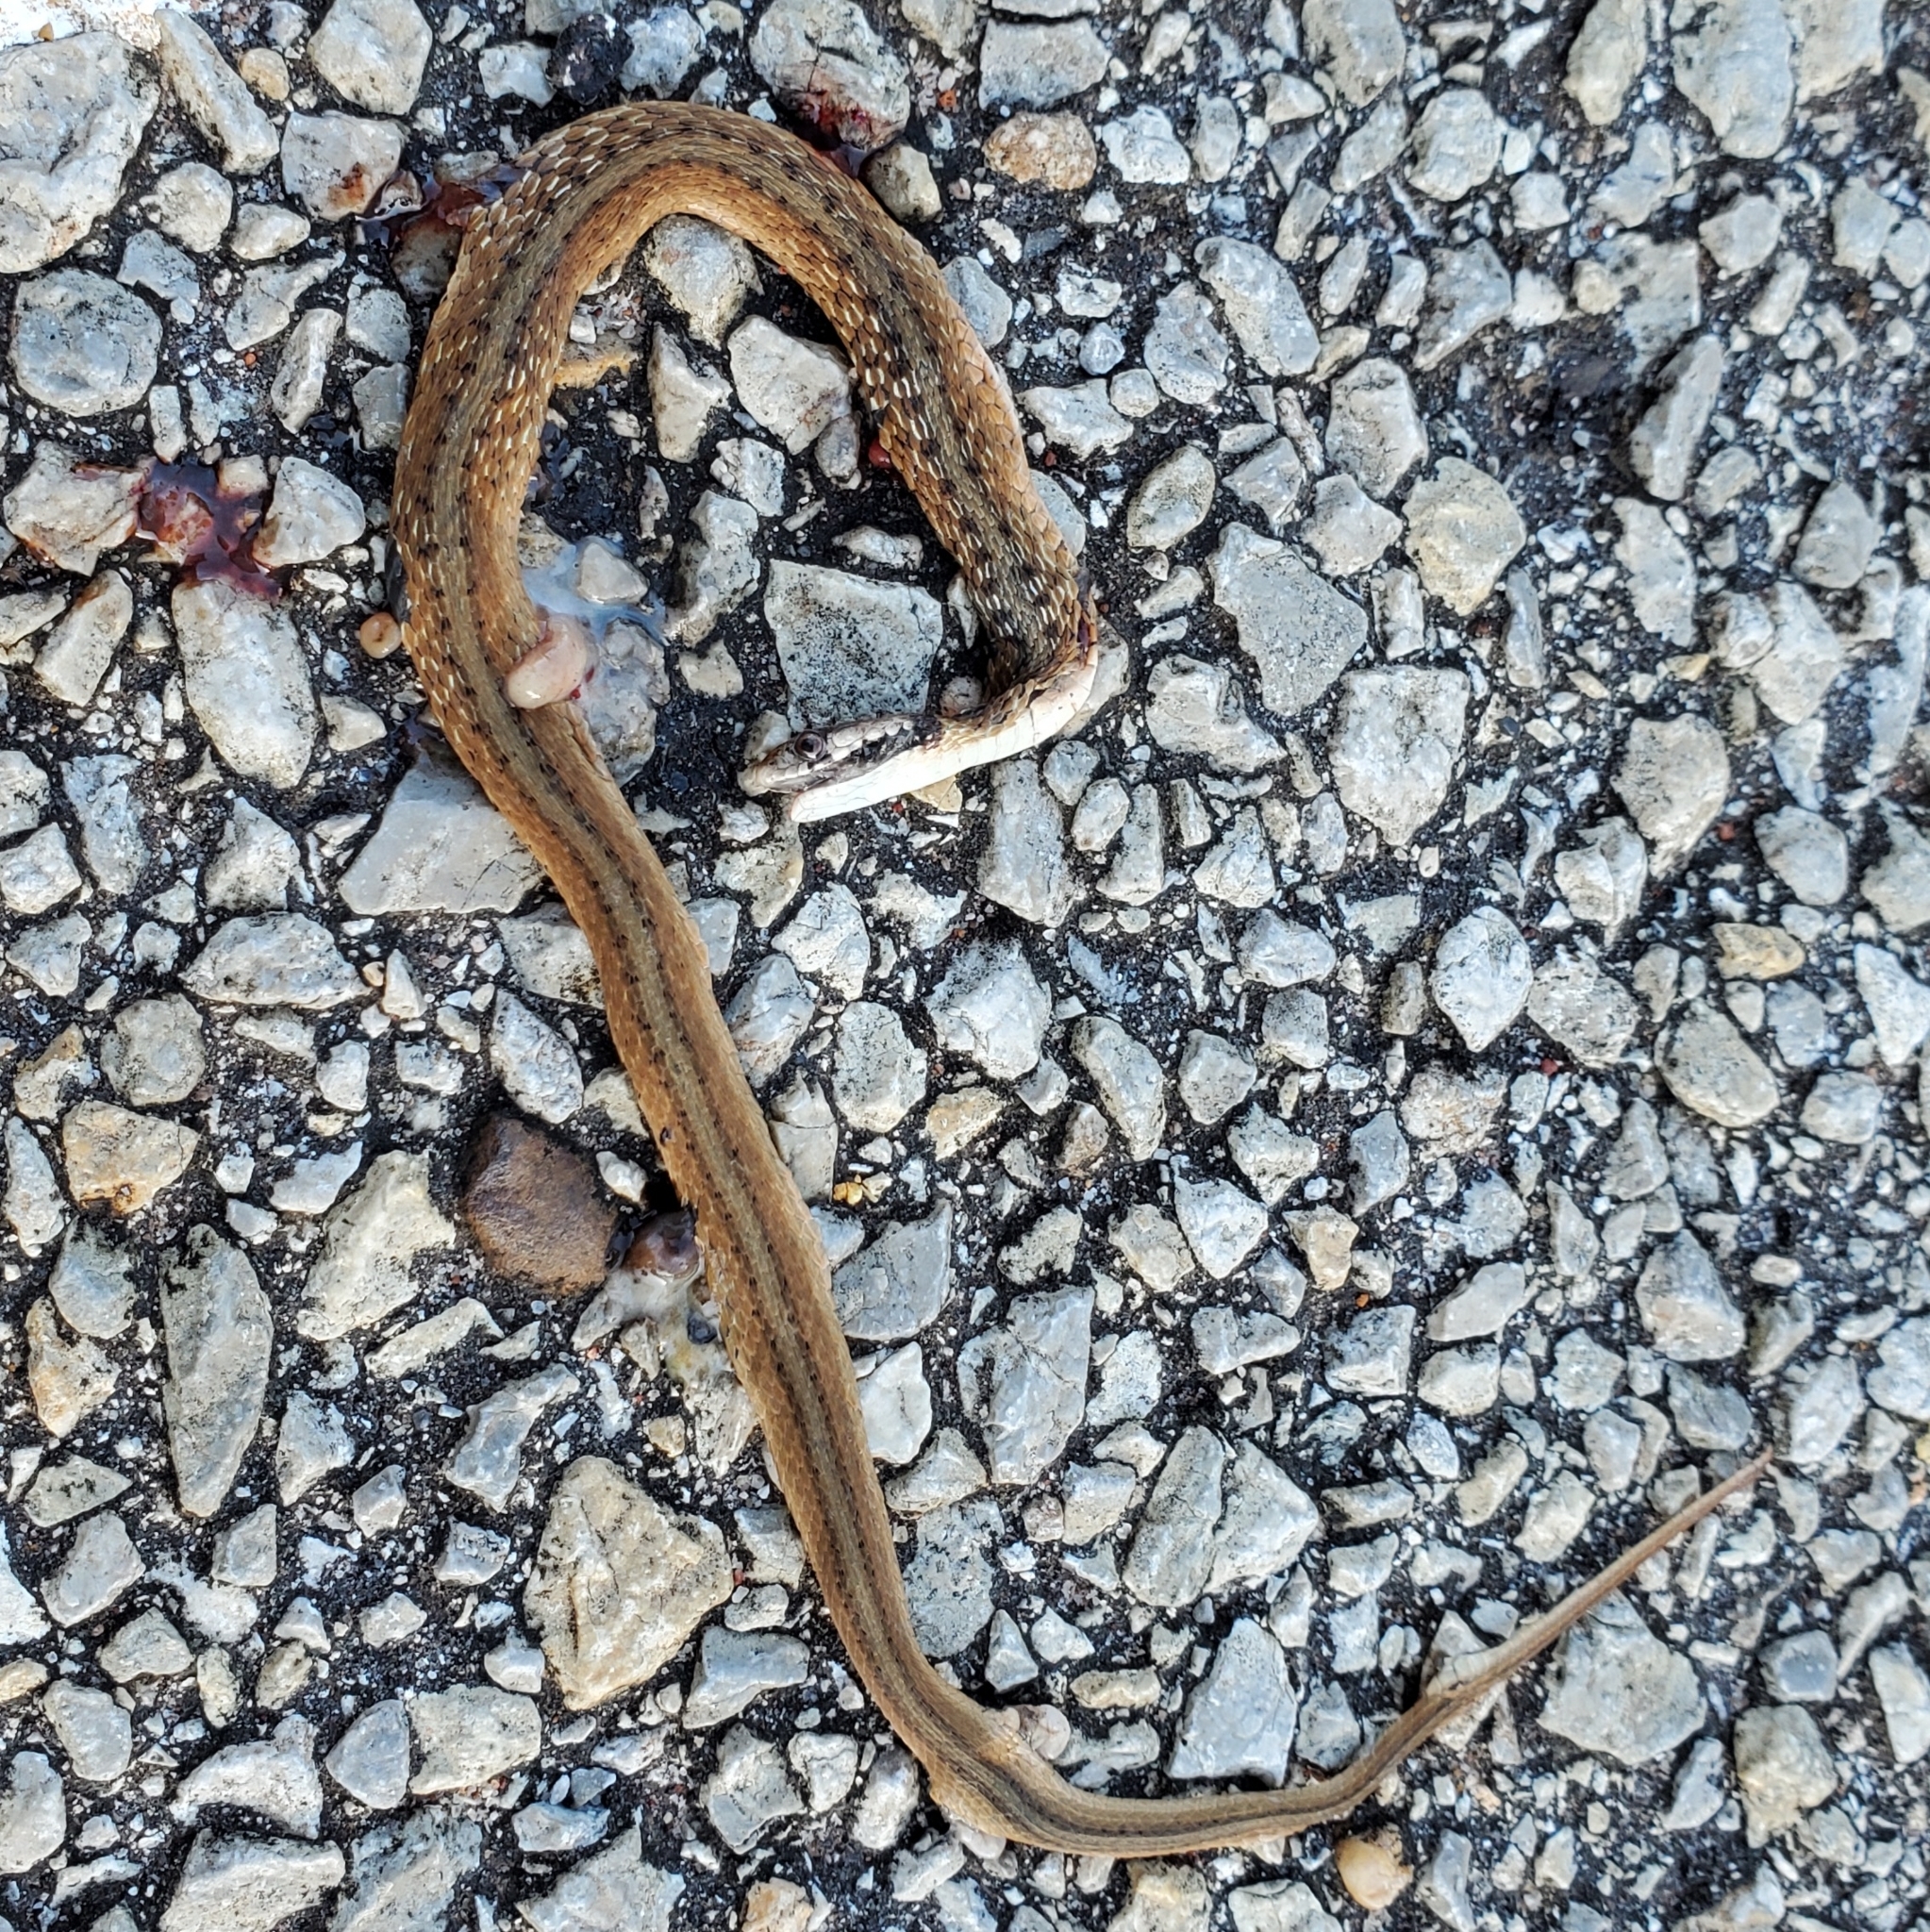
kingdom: Animalia
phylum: Chordata
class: Squamata
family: Colubridae
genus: Storeria
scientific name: Storeria dekayi
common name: (dekay’s) brown snake
